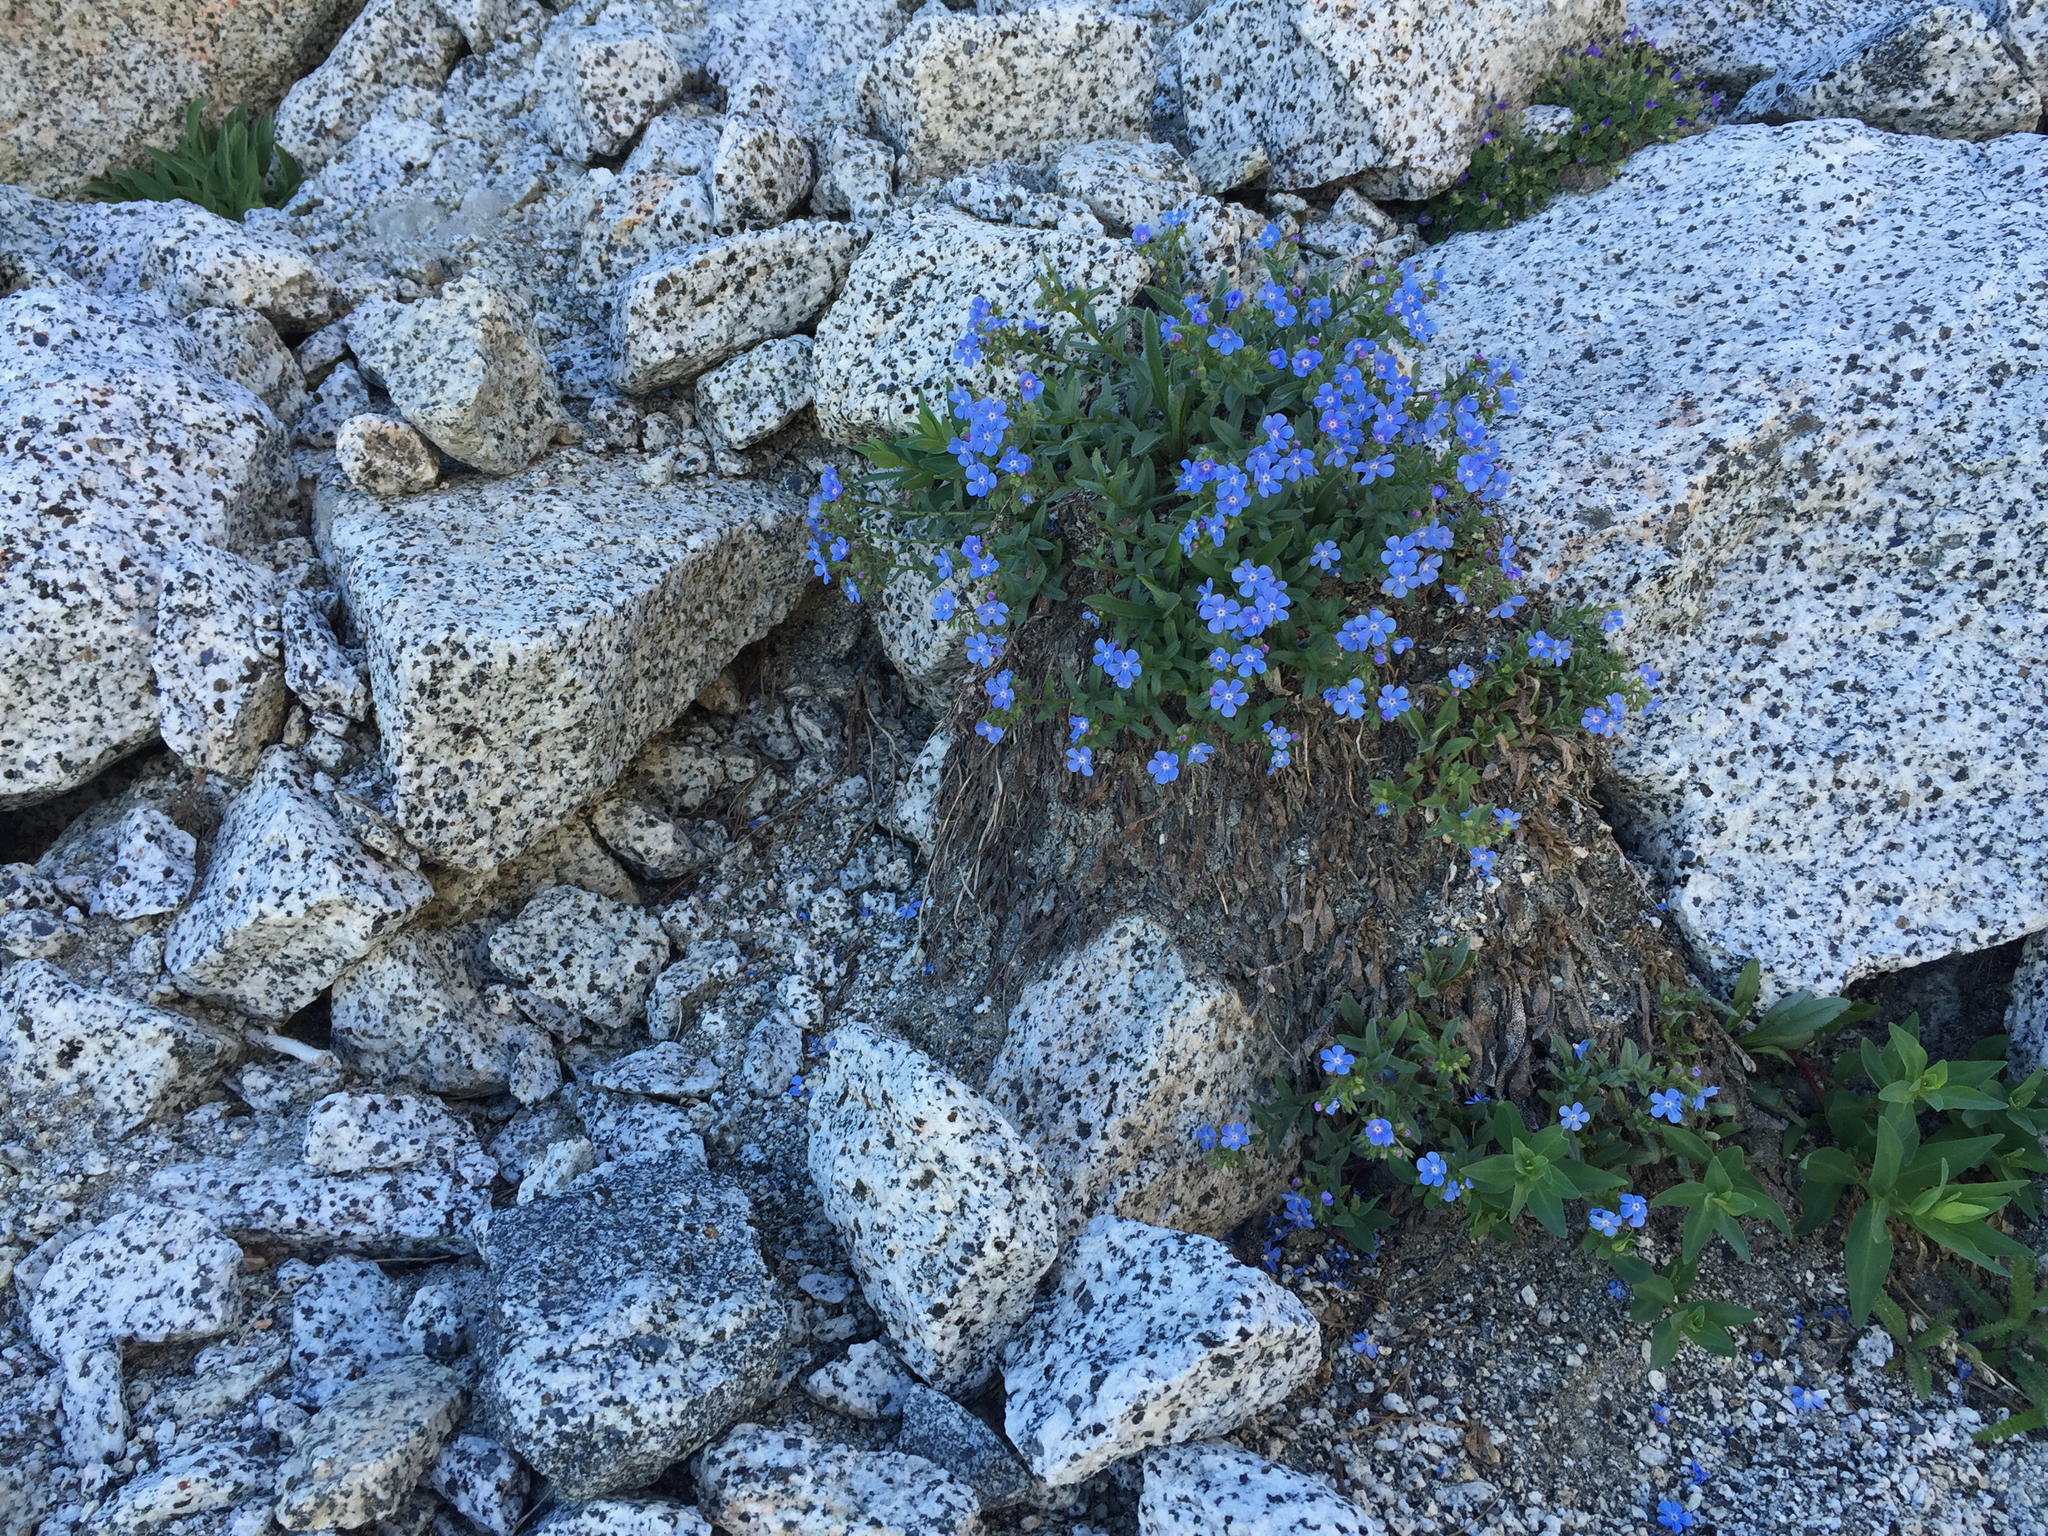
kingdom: Plantae
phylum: Tracheophyta
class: Magnoliopsida
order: Boraginales
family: Boraginaceae
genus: Hackelia
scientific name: Hackelia taylorii
